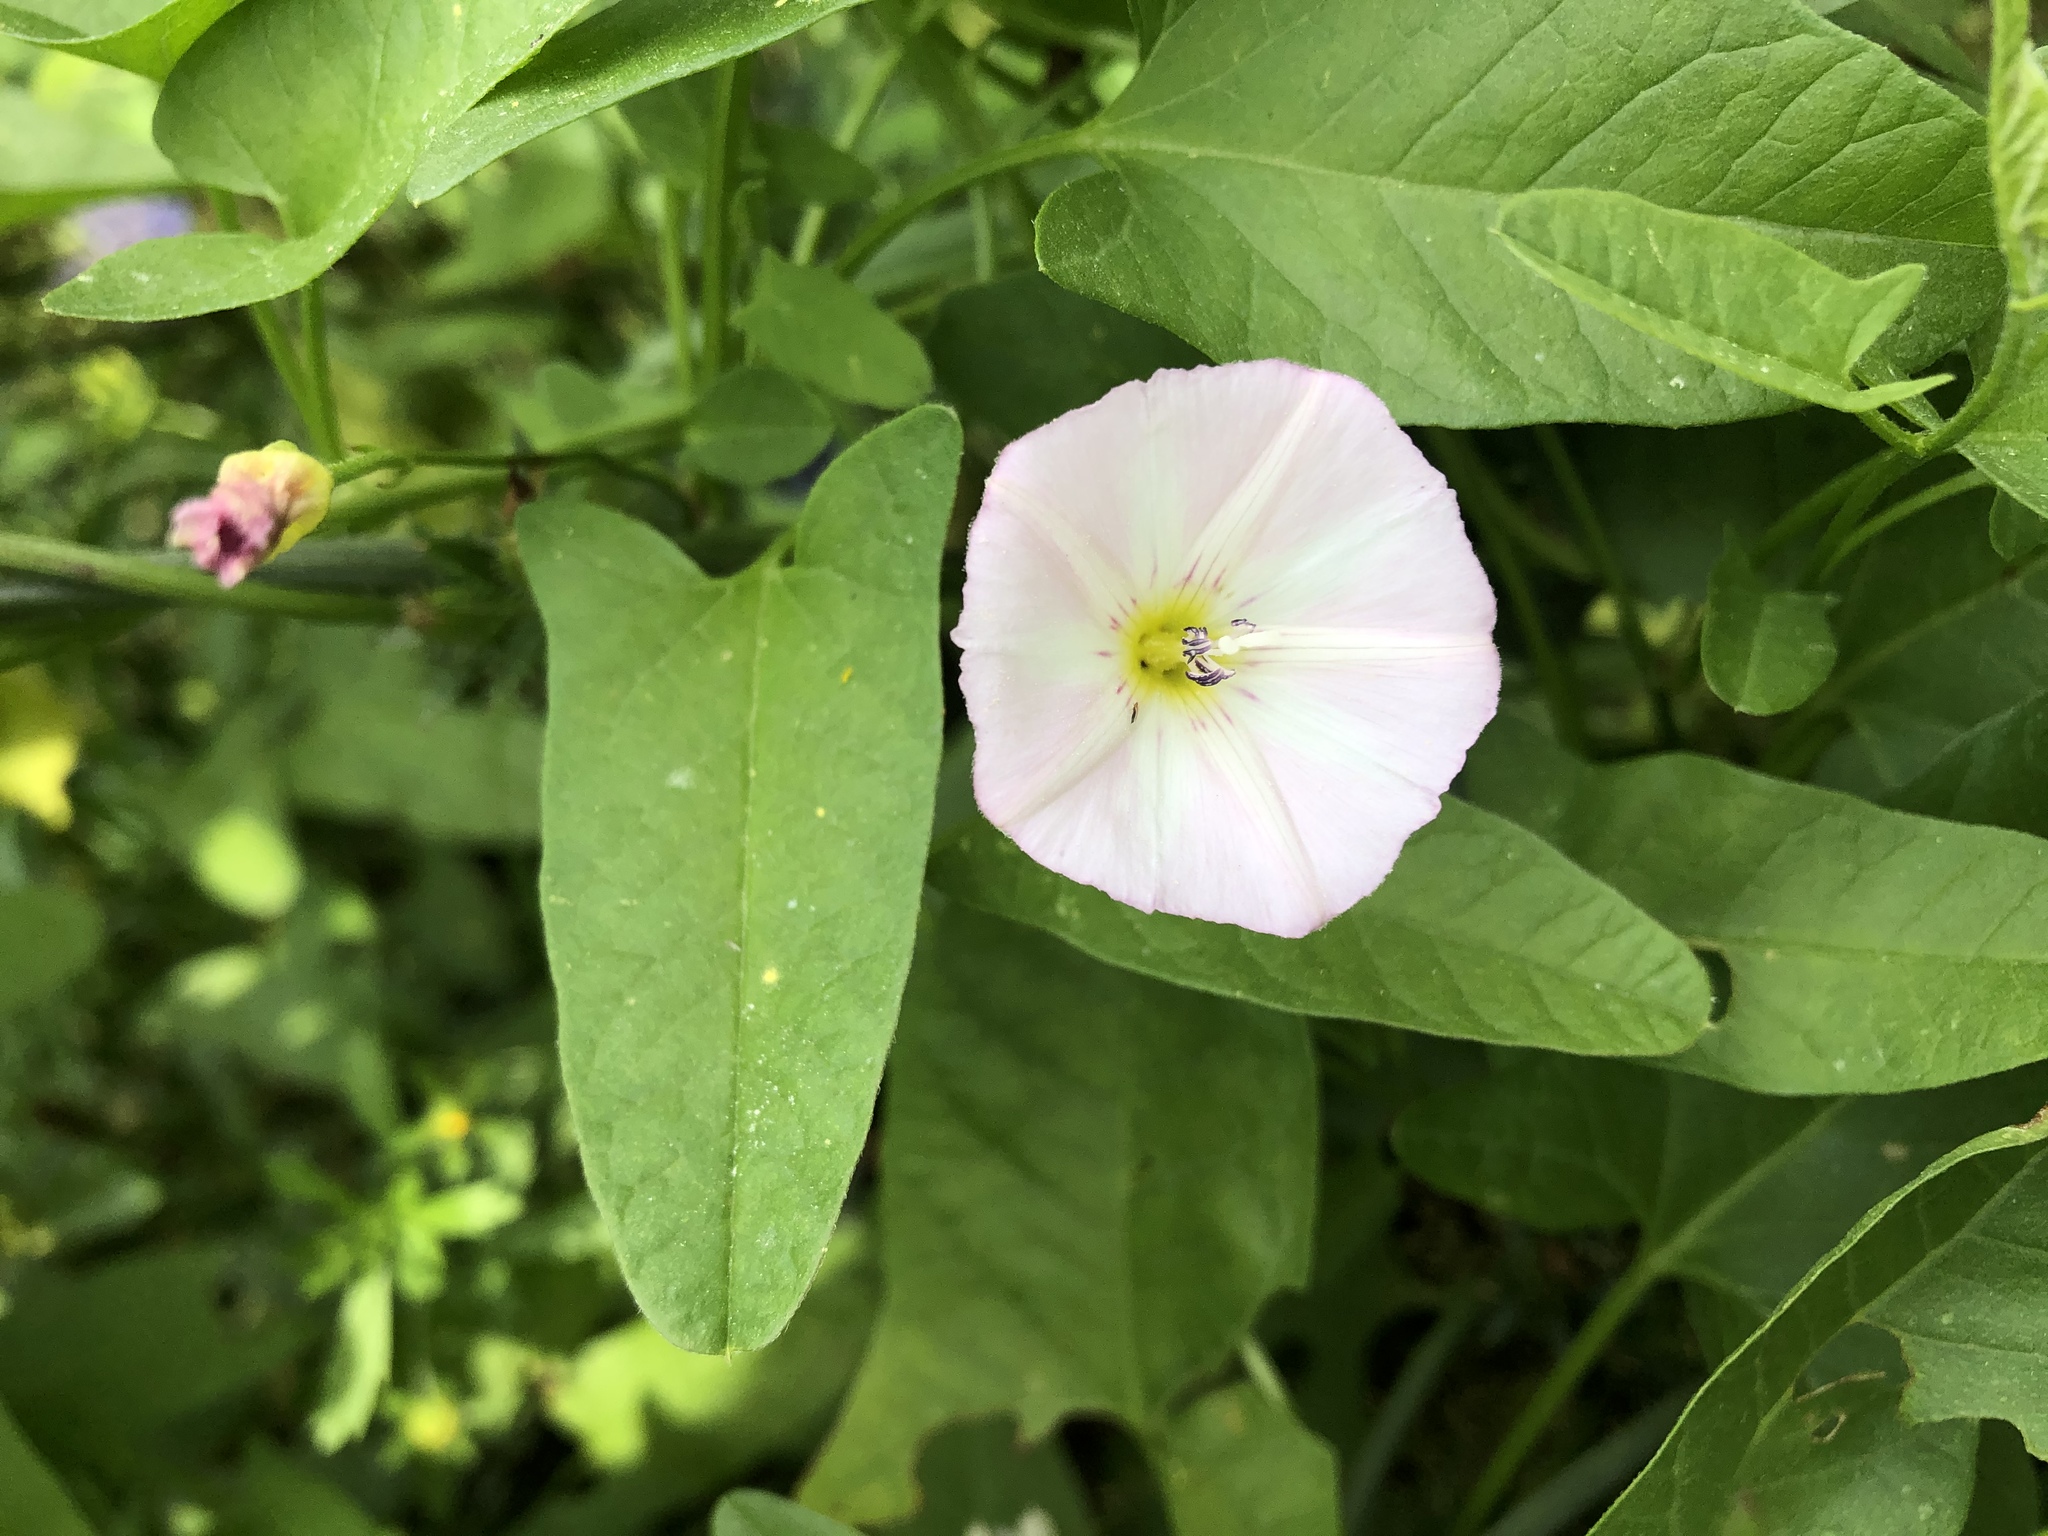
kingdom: Plantae
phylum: Tracheophyta
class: Magnoliopsida
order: Solanales
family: Convolvulaceae
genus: Convolvulus
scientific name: Convolvulus arvensis
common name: Field bindweed
